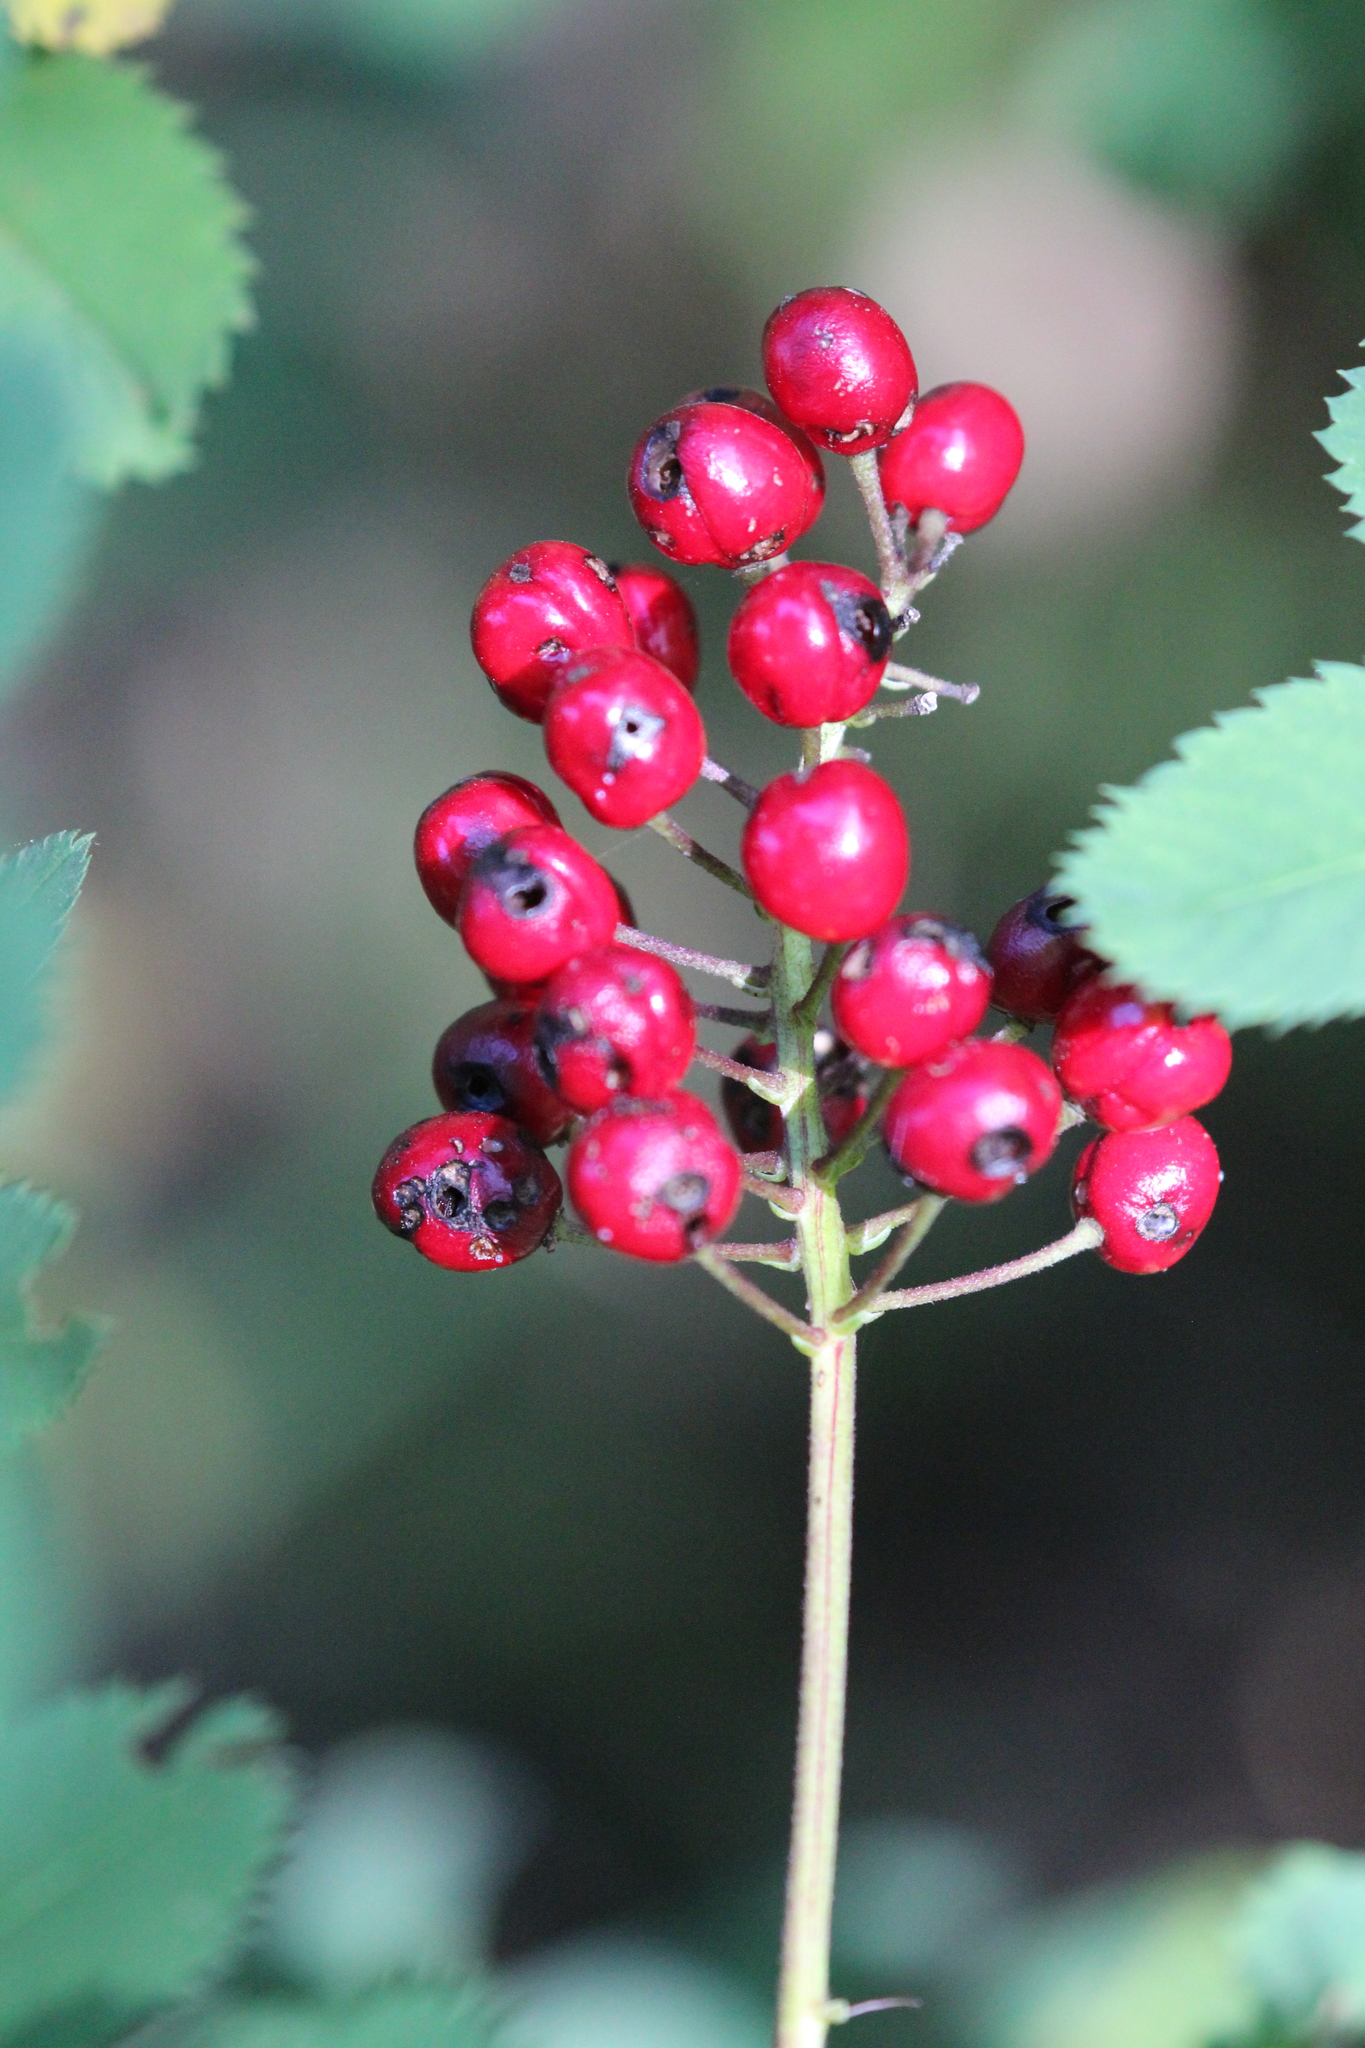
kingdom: Plantae
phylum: Tracheophyta
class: Magnoliopsida
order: Ranunculales
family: Ranunculaceae
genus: Actaea
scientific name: Actaea rubra
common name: Red baneberry
